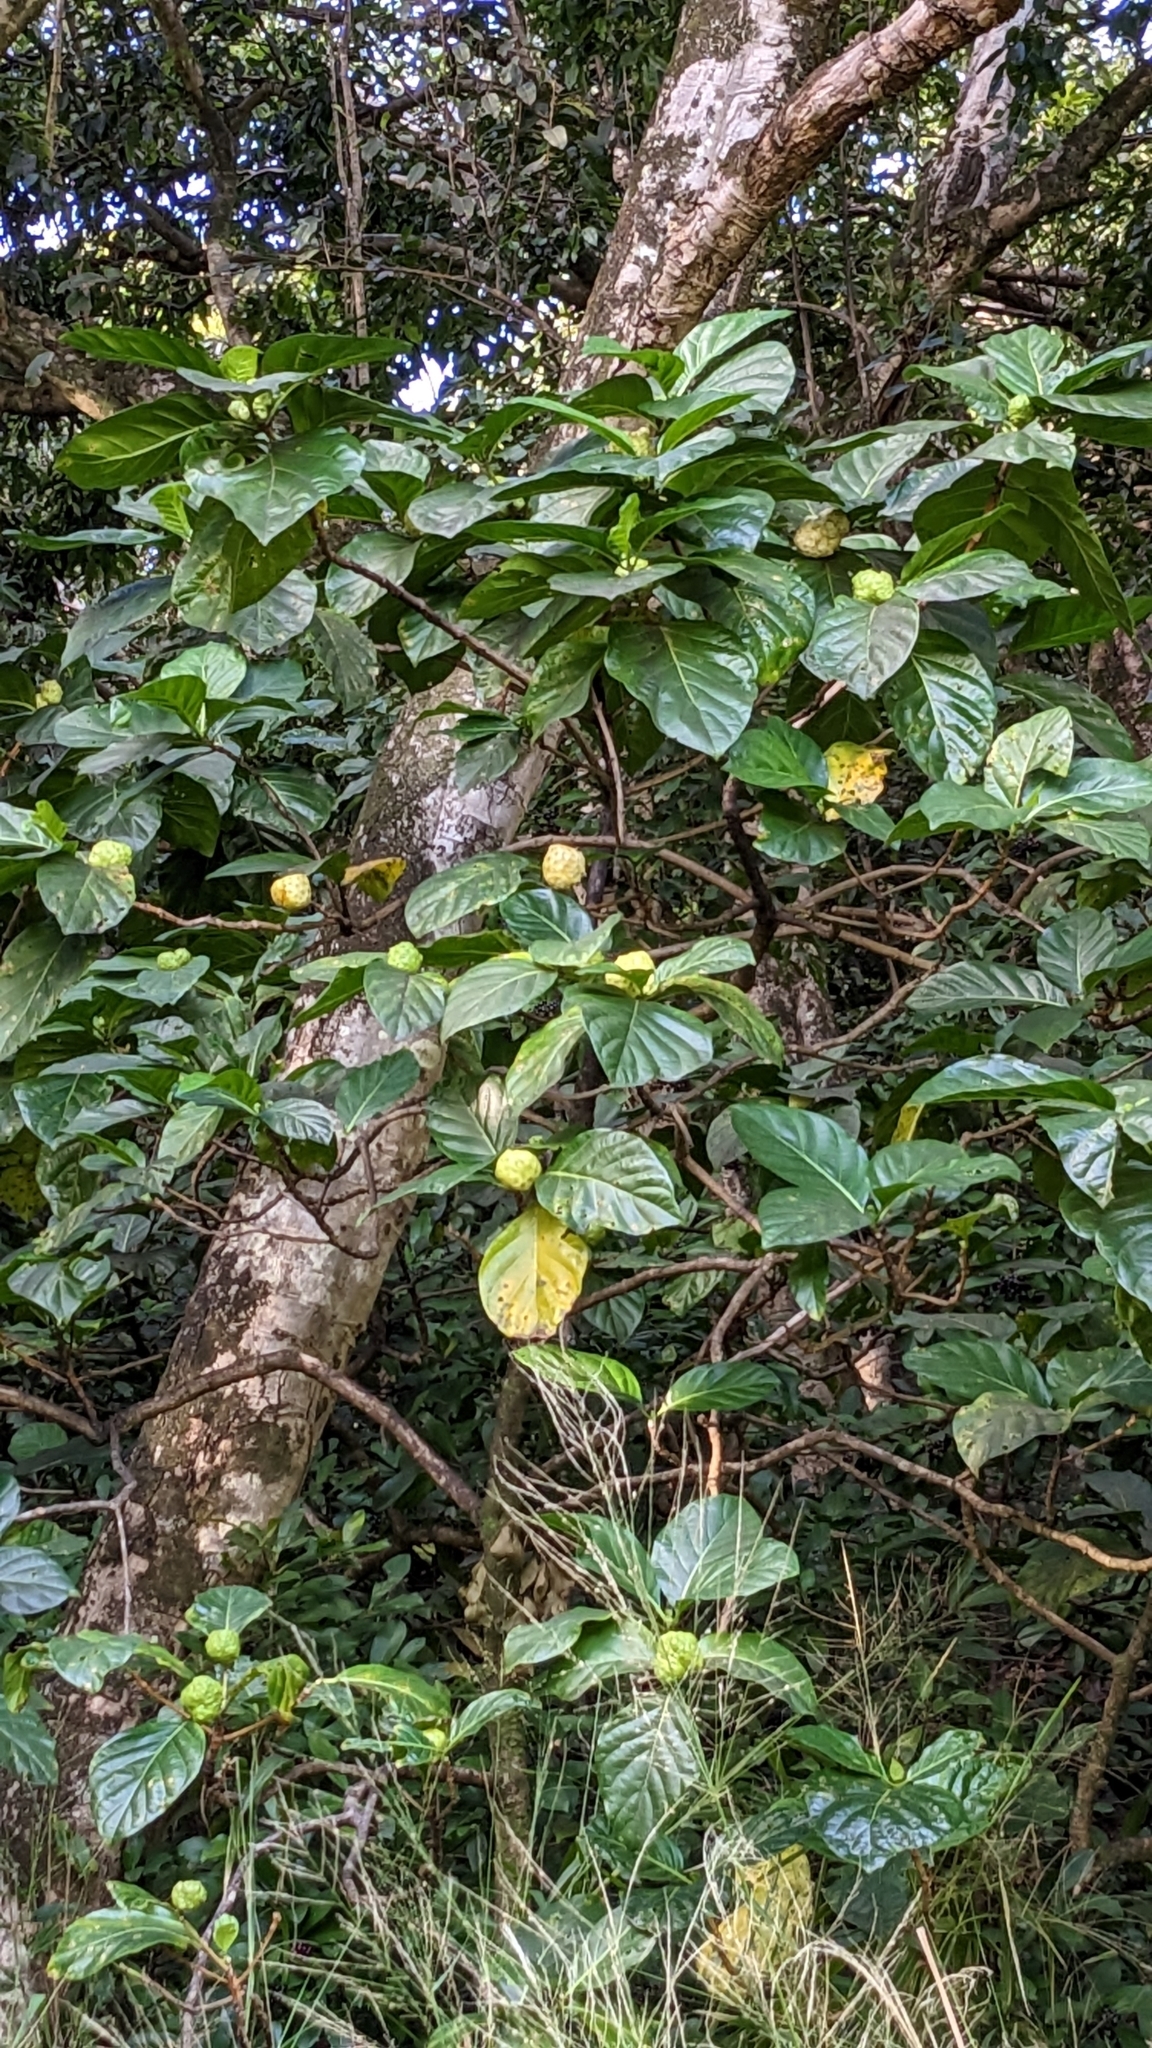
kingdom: Plantae
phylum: Tracheophyta
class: Magnoliopsida
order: Gentianales
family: Rubiaceae
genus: Morinda
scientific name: Morinda citrifolia
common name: Indian-mulberry
